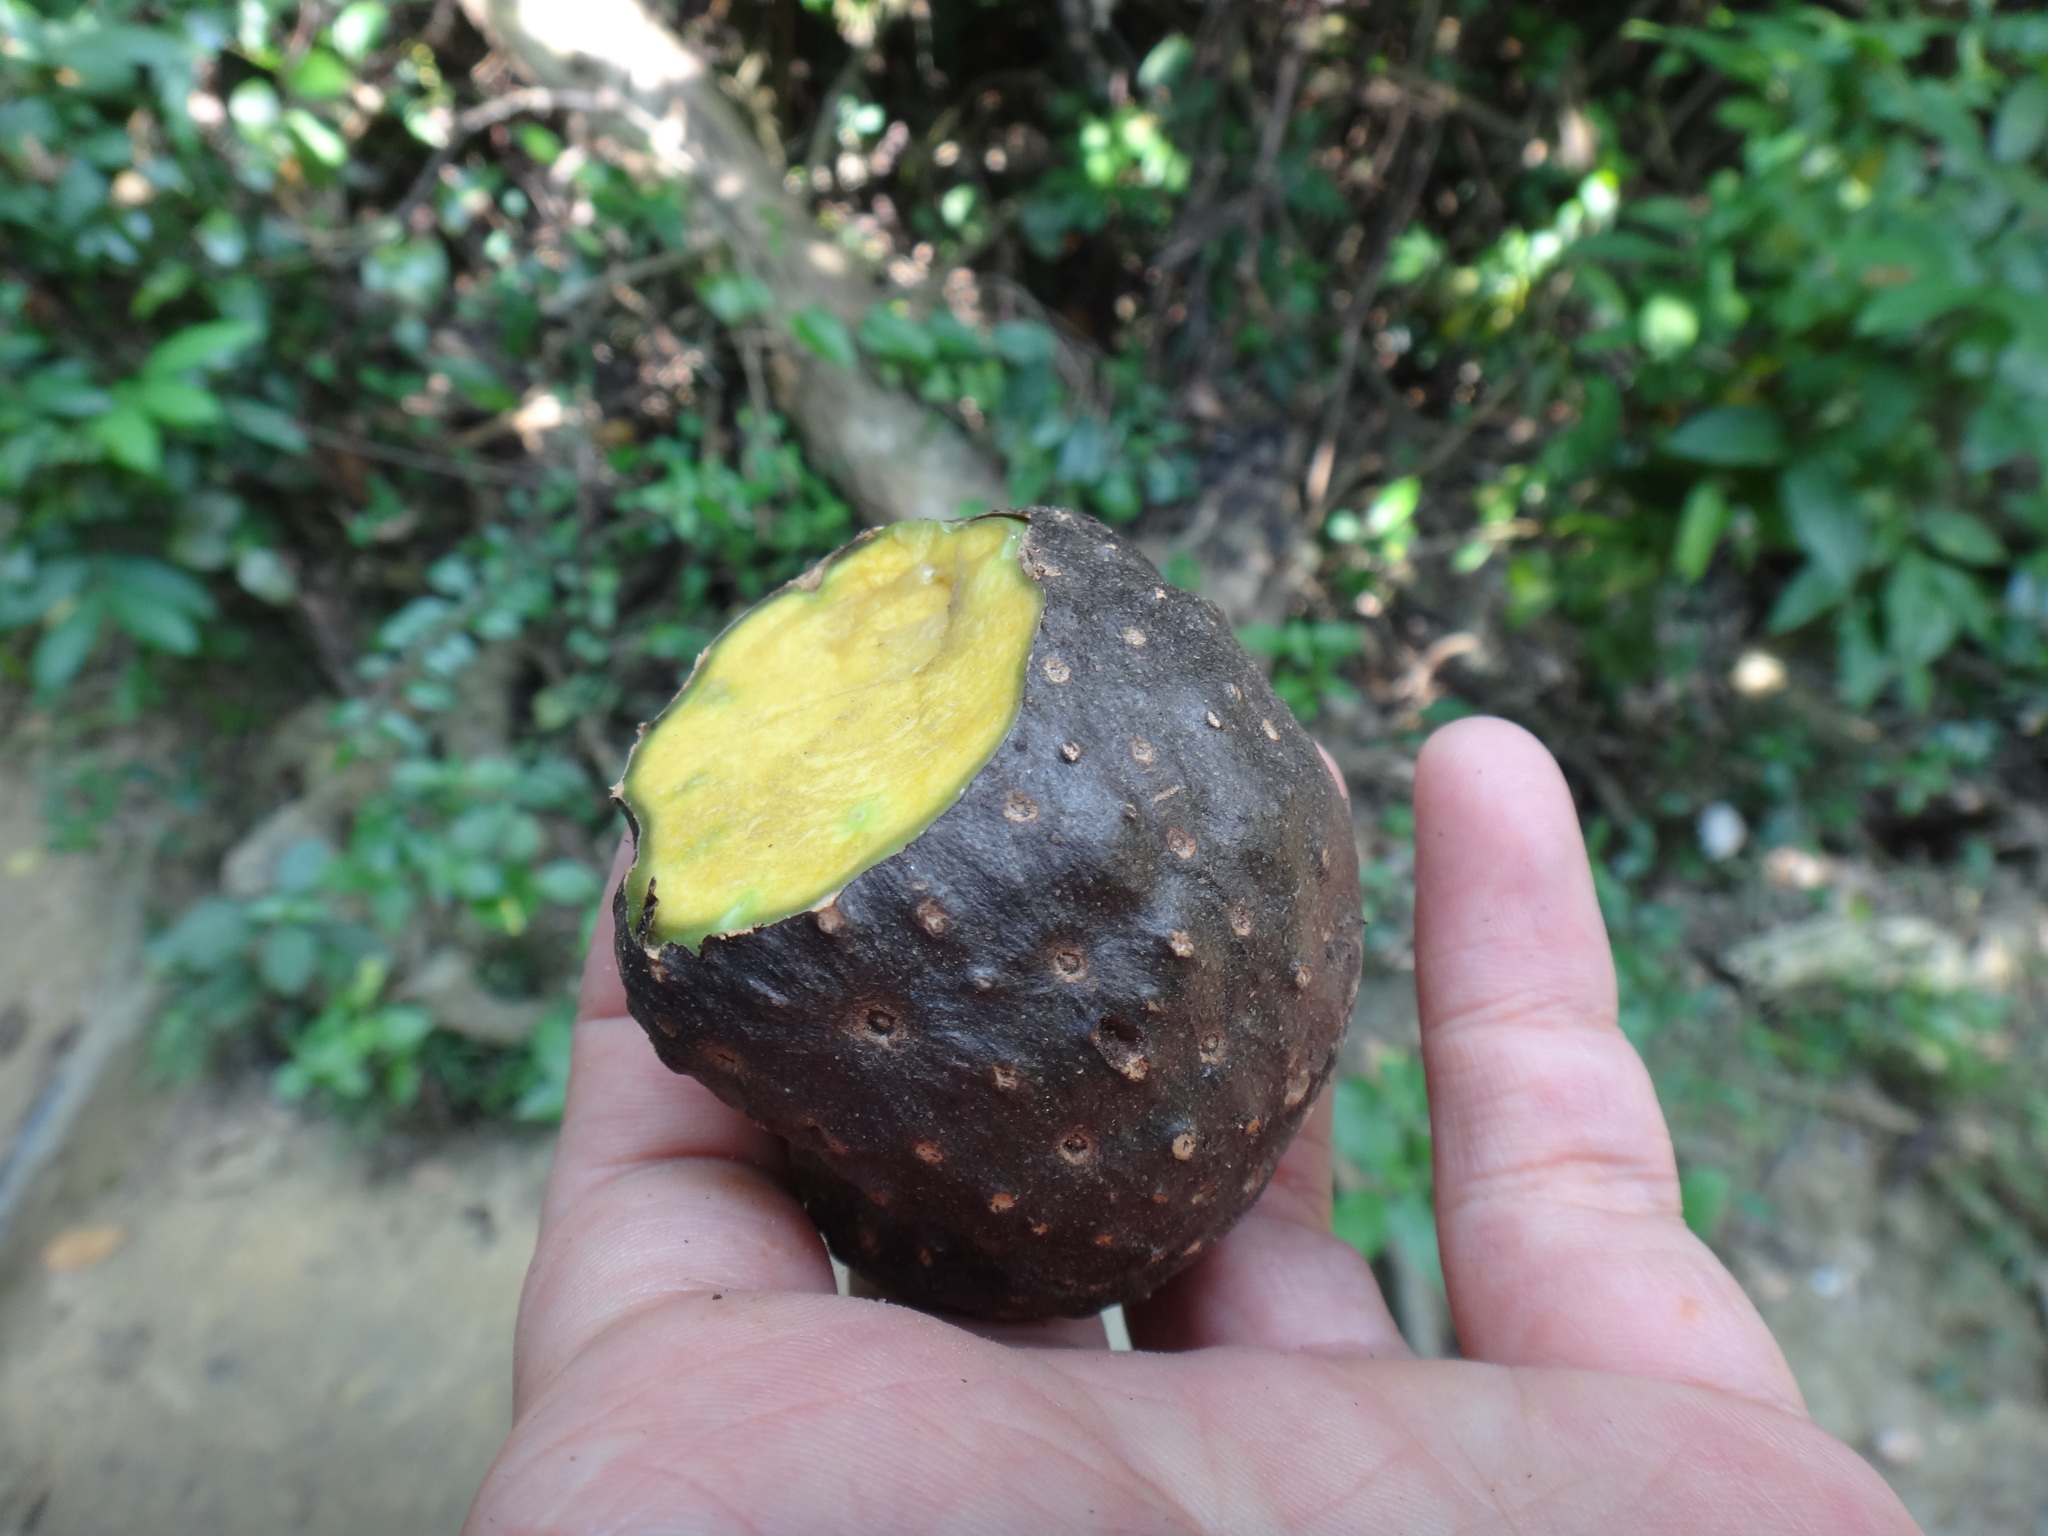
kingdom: Plantae
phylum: Tracheophyta
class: Liliopsida
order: Dioscoreales
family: Dioscoreaceae
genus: Dioscorea
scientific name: Dioscorea bulbifera
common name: Air yam
